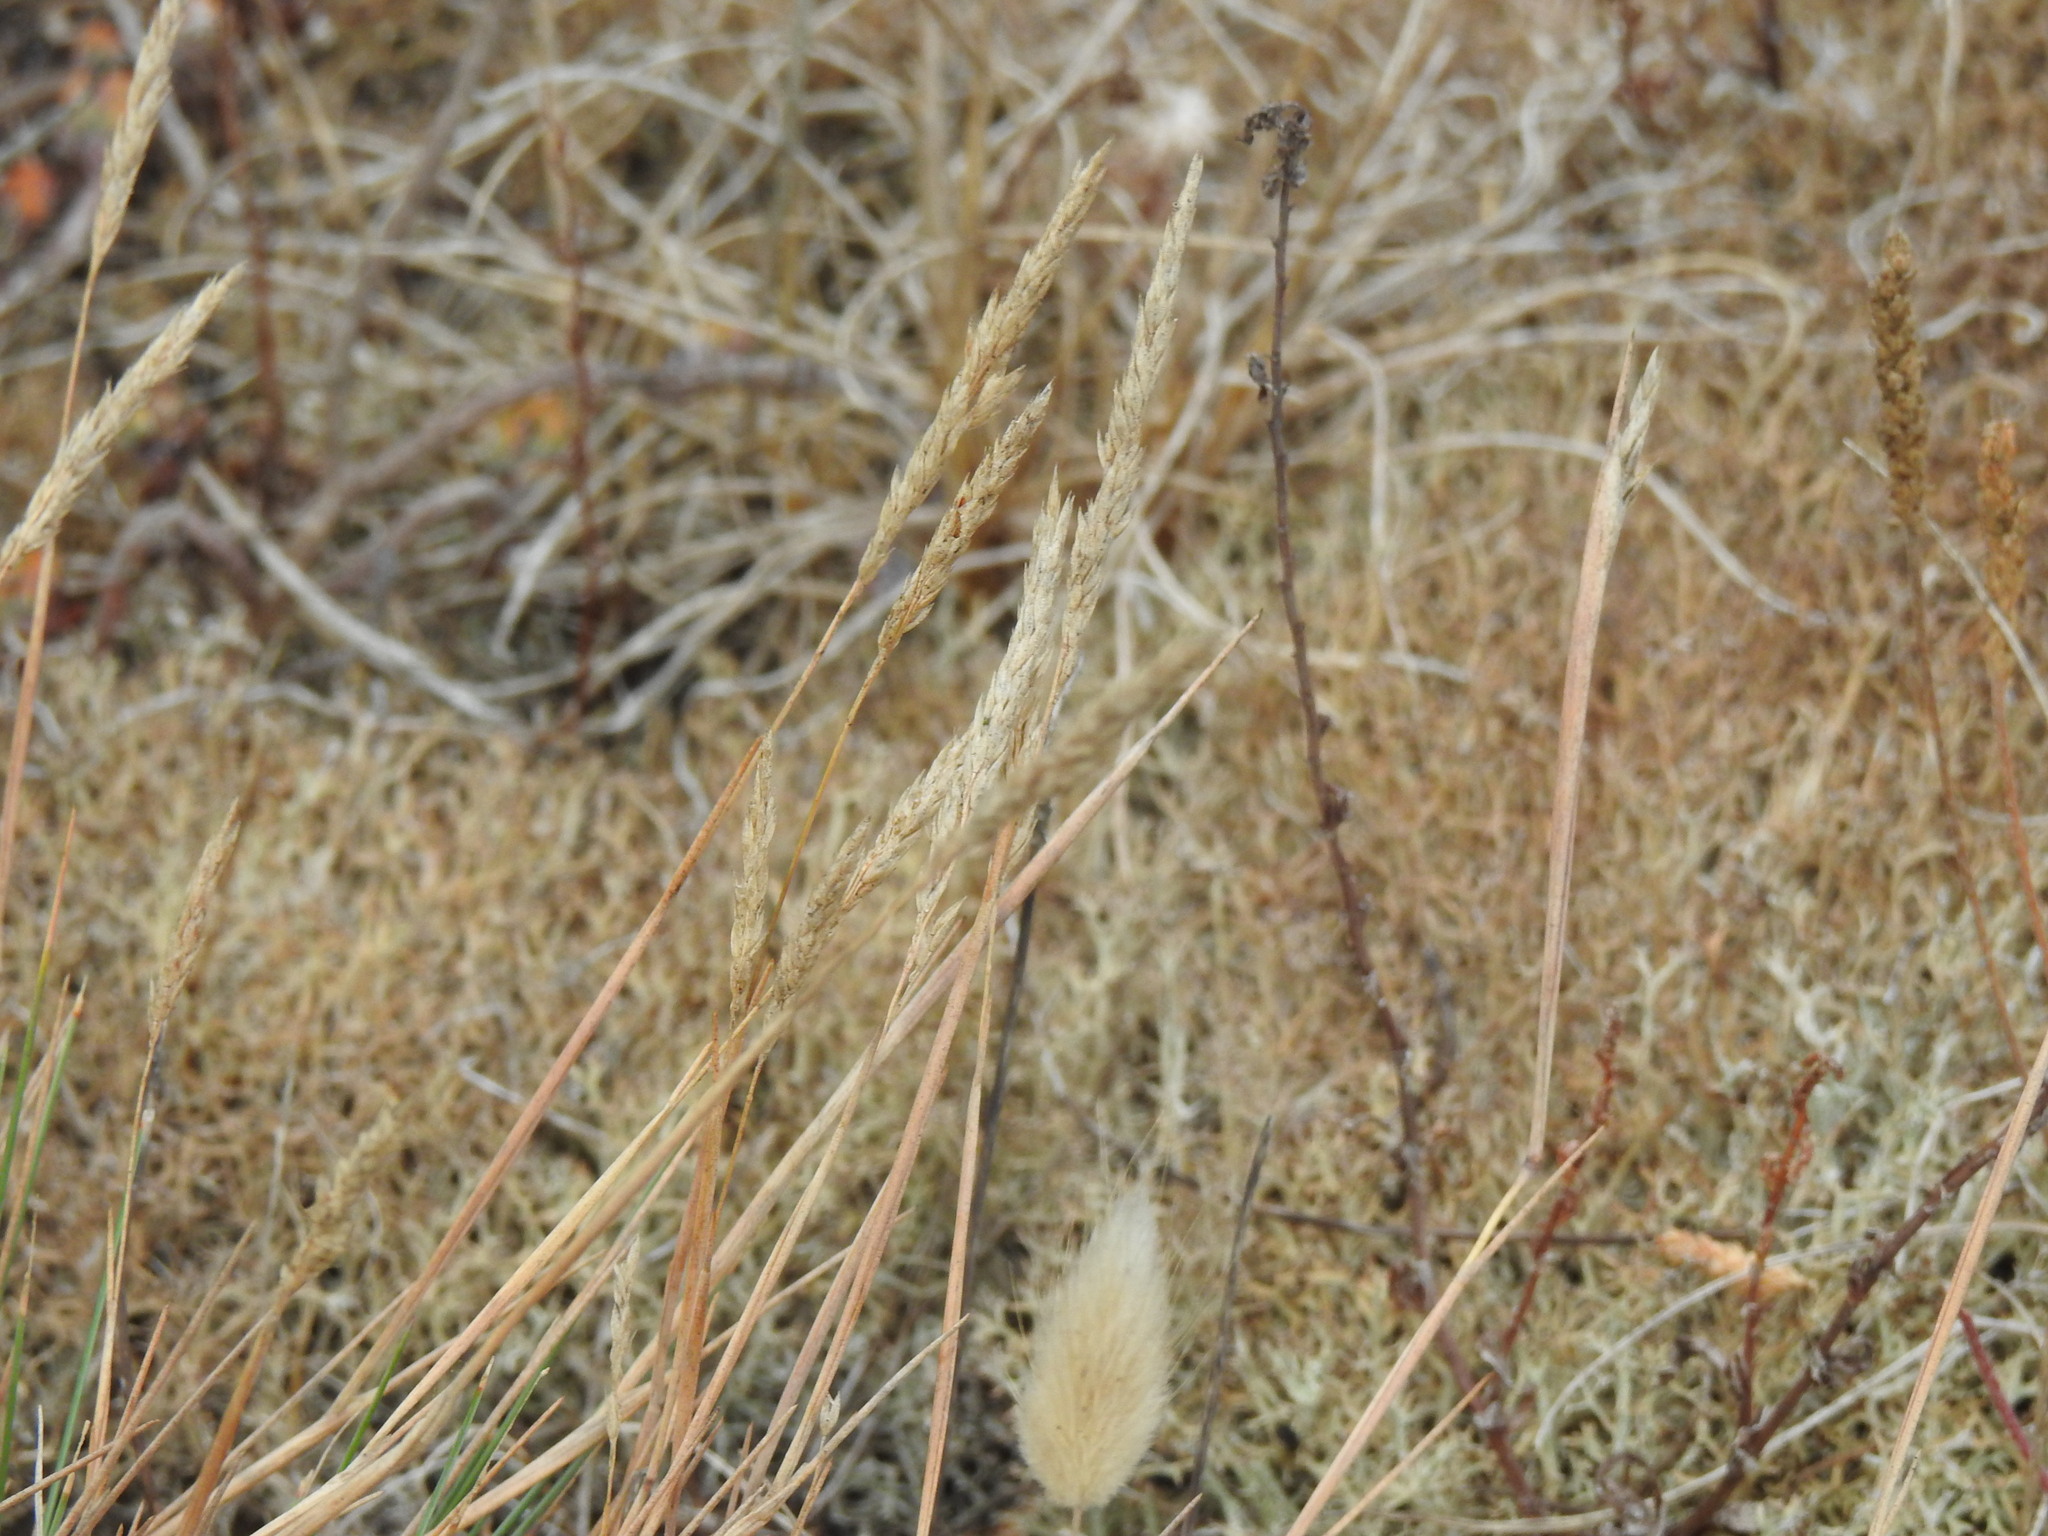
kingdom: Plantae
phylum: Tracheophyta
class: Liliopsida
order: Poales
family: Poaceae
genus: Corynephorus
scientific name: Corynephorus canescens
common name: Grey hair-grass
